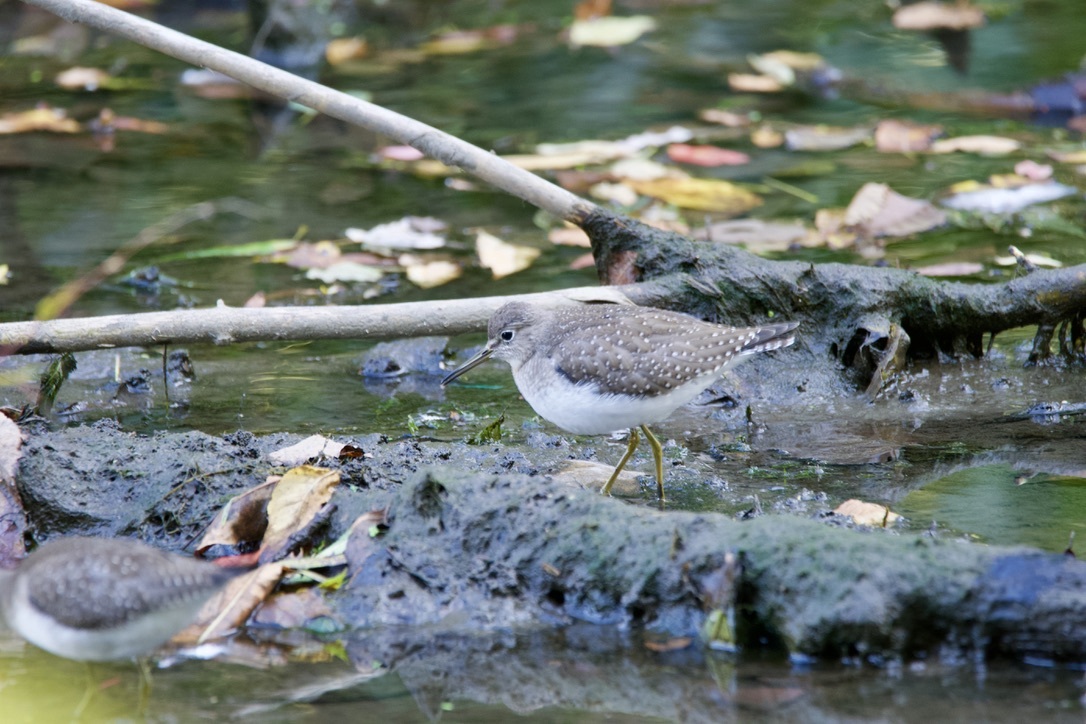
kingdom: Animalia
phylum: Chordata
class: Aves
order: Charadriiformes
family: Scolopacidae
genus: Tringa
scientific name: Tringa solitaria
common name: Solitary sandpiper
